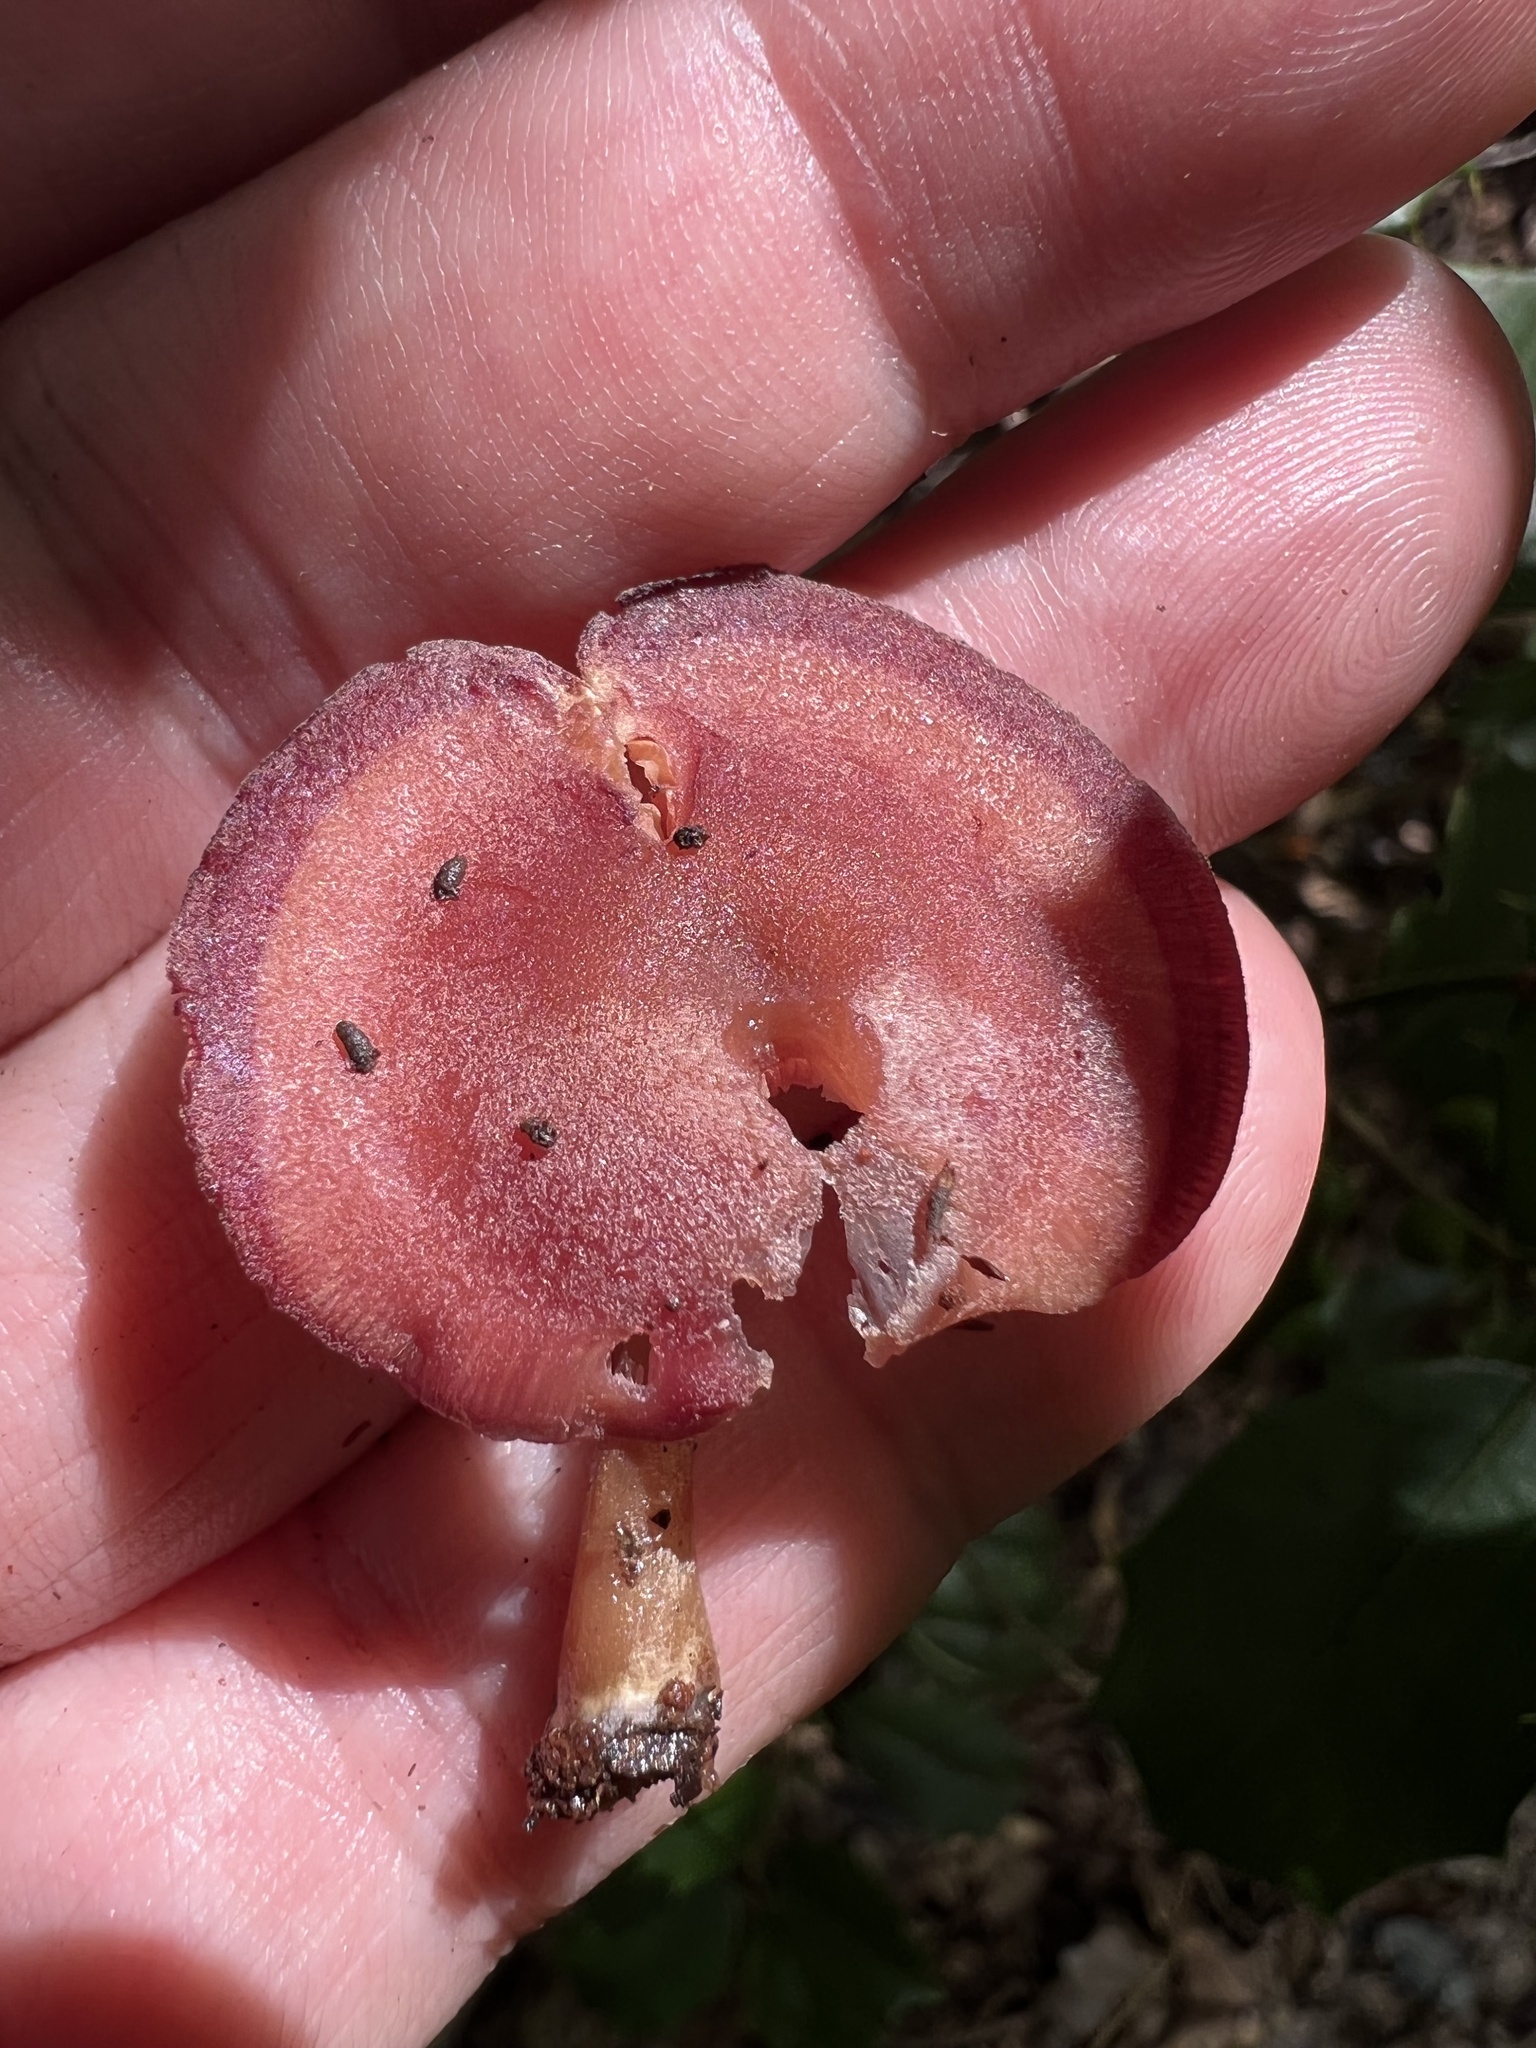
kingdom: Fungi
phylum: Basidiomycota
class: Agaricomycetes
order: Agaricales
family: Callistosporiaceae
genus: Callistosporium
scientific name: Callistosporium purpureomarginatum
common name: Purple-edged lute
